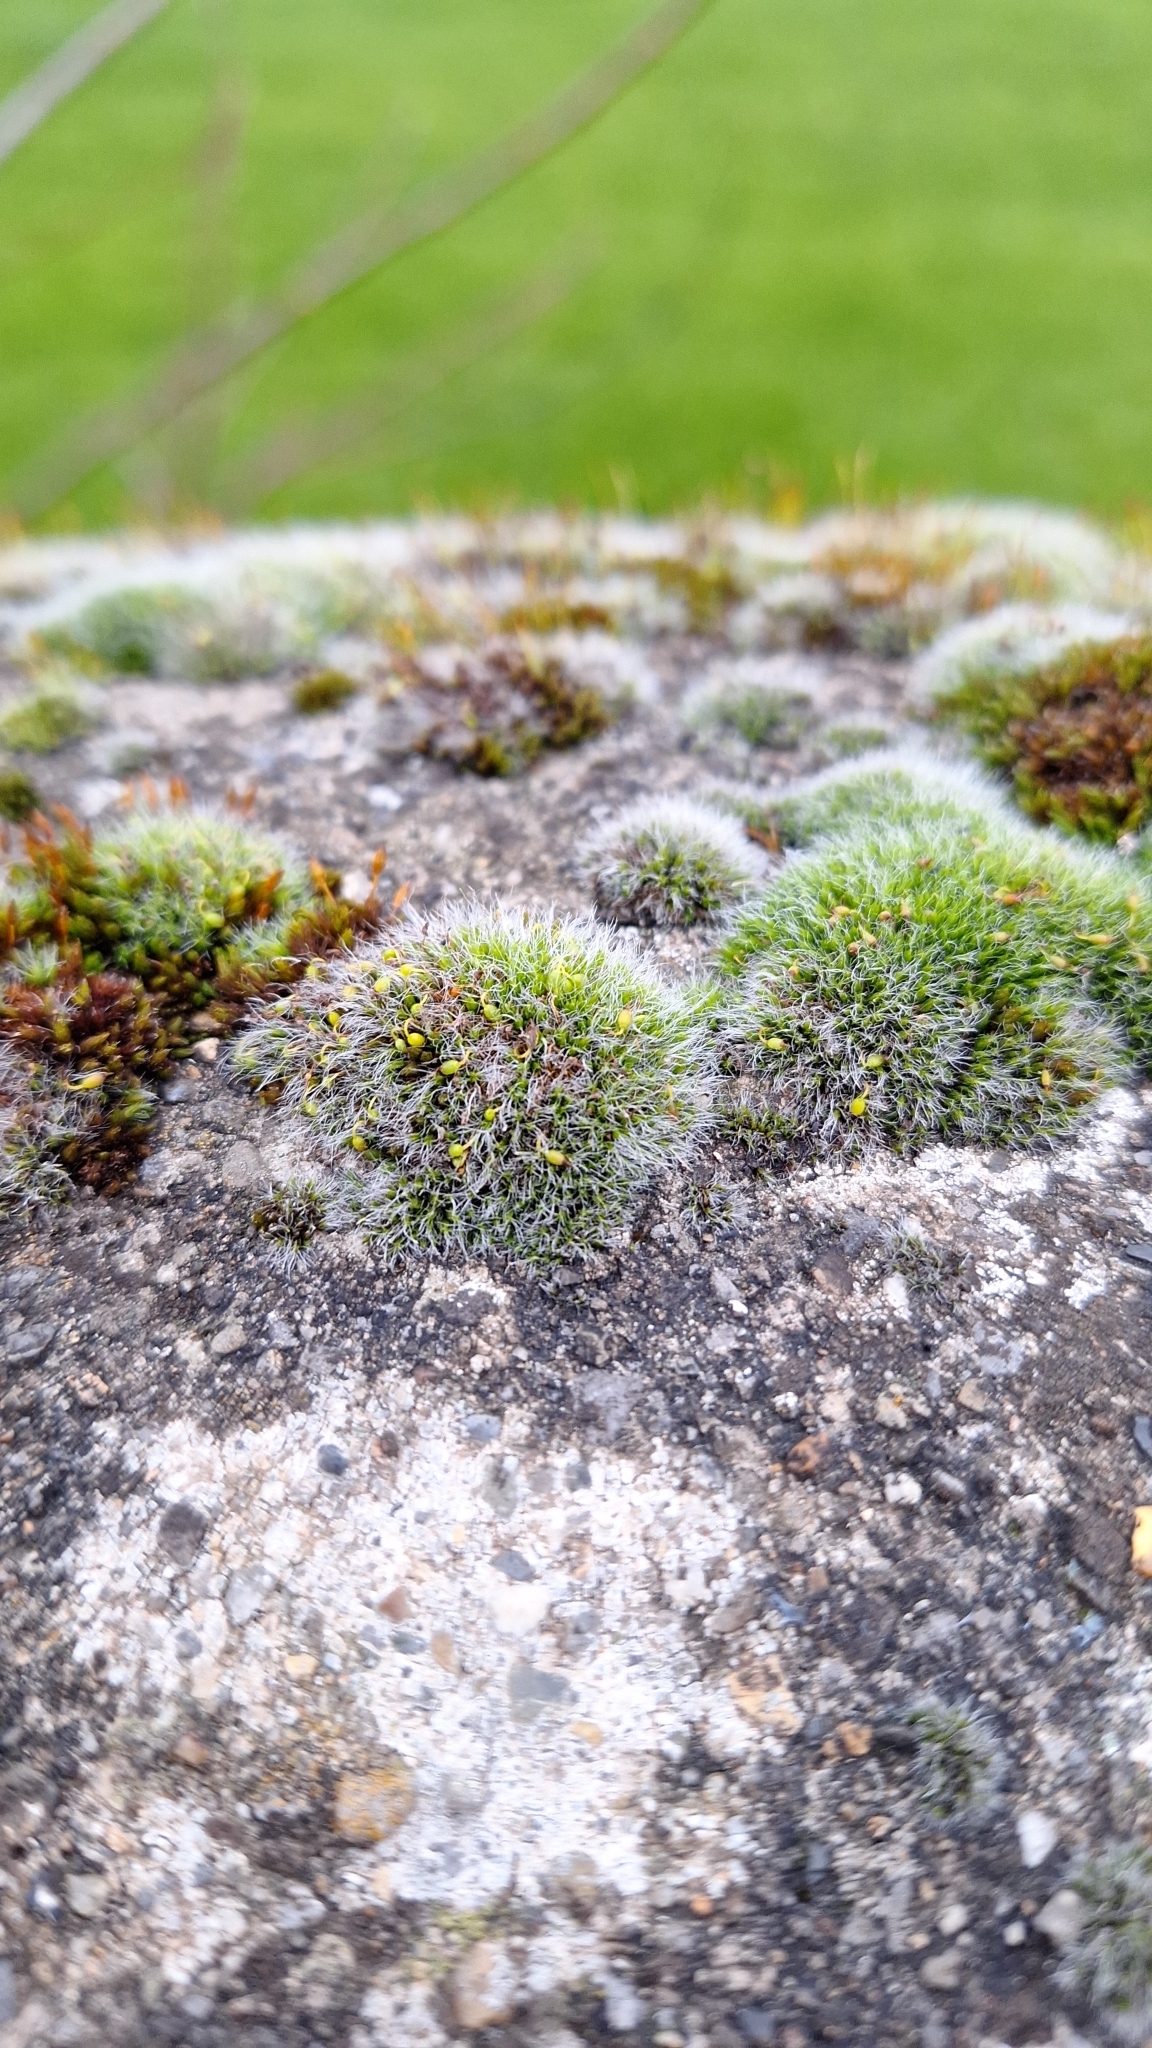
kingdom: Plantae
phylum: Bryophyta
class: Bryopsida
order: Grimmiales
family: Grimmiaceae
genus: Grimmia
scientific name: Grimmia pulvinata
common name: Grey-cushioned grimmia
